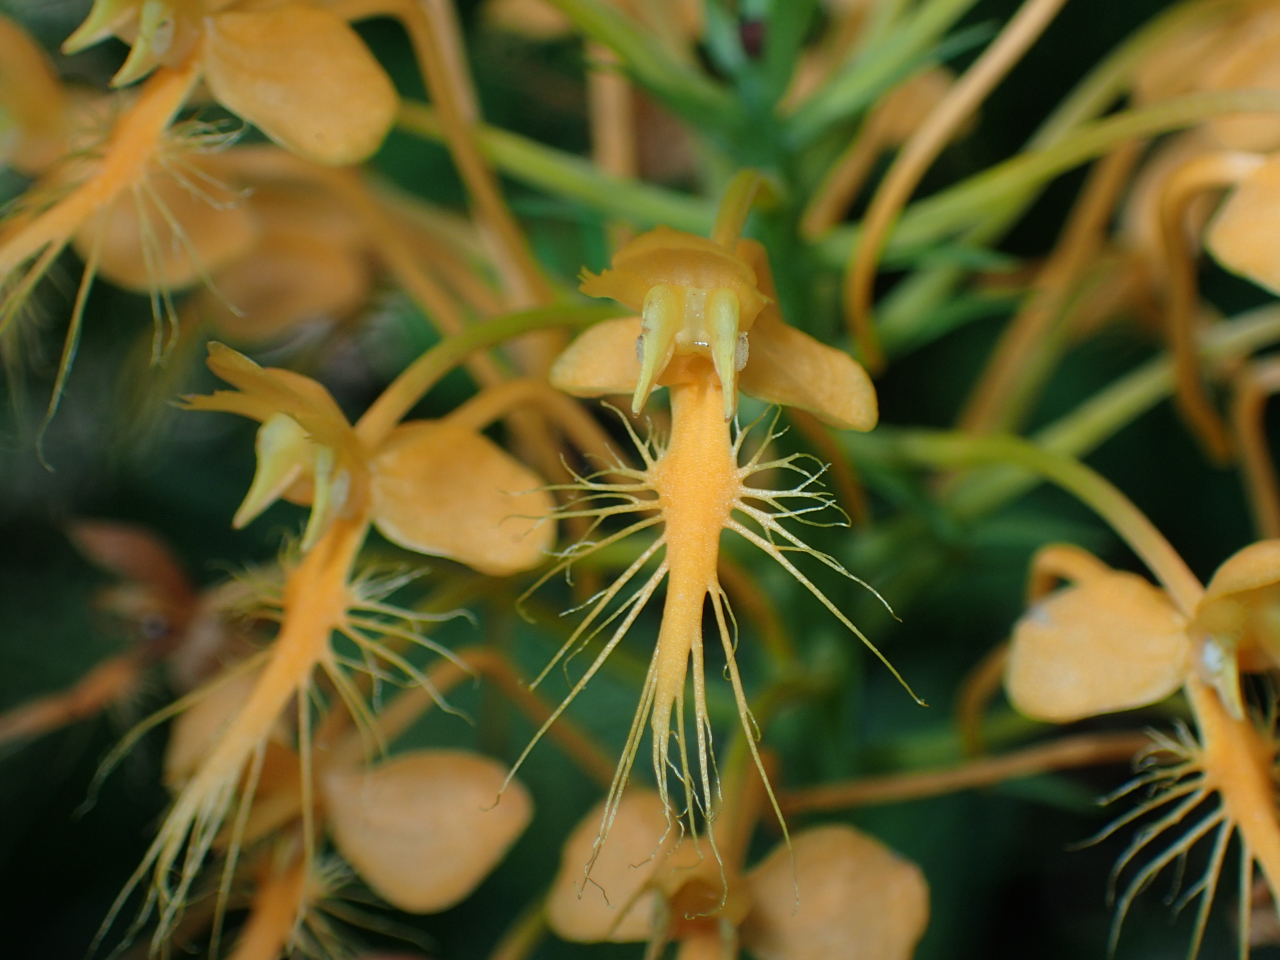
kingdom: Plantae
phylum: Tracheophyta
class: Liliopsida
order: Asparagales
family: Orchidaceae
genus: Platanthera
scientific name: Platanthera ciliaris
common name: Yellow fringed orchid
